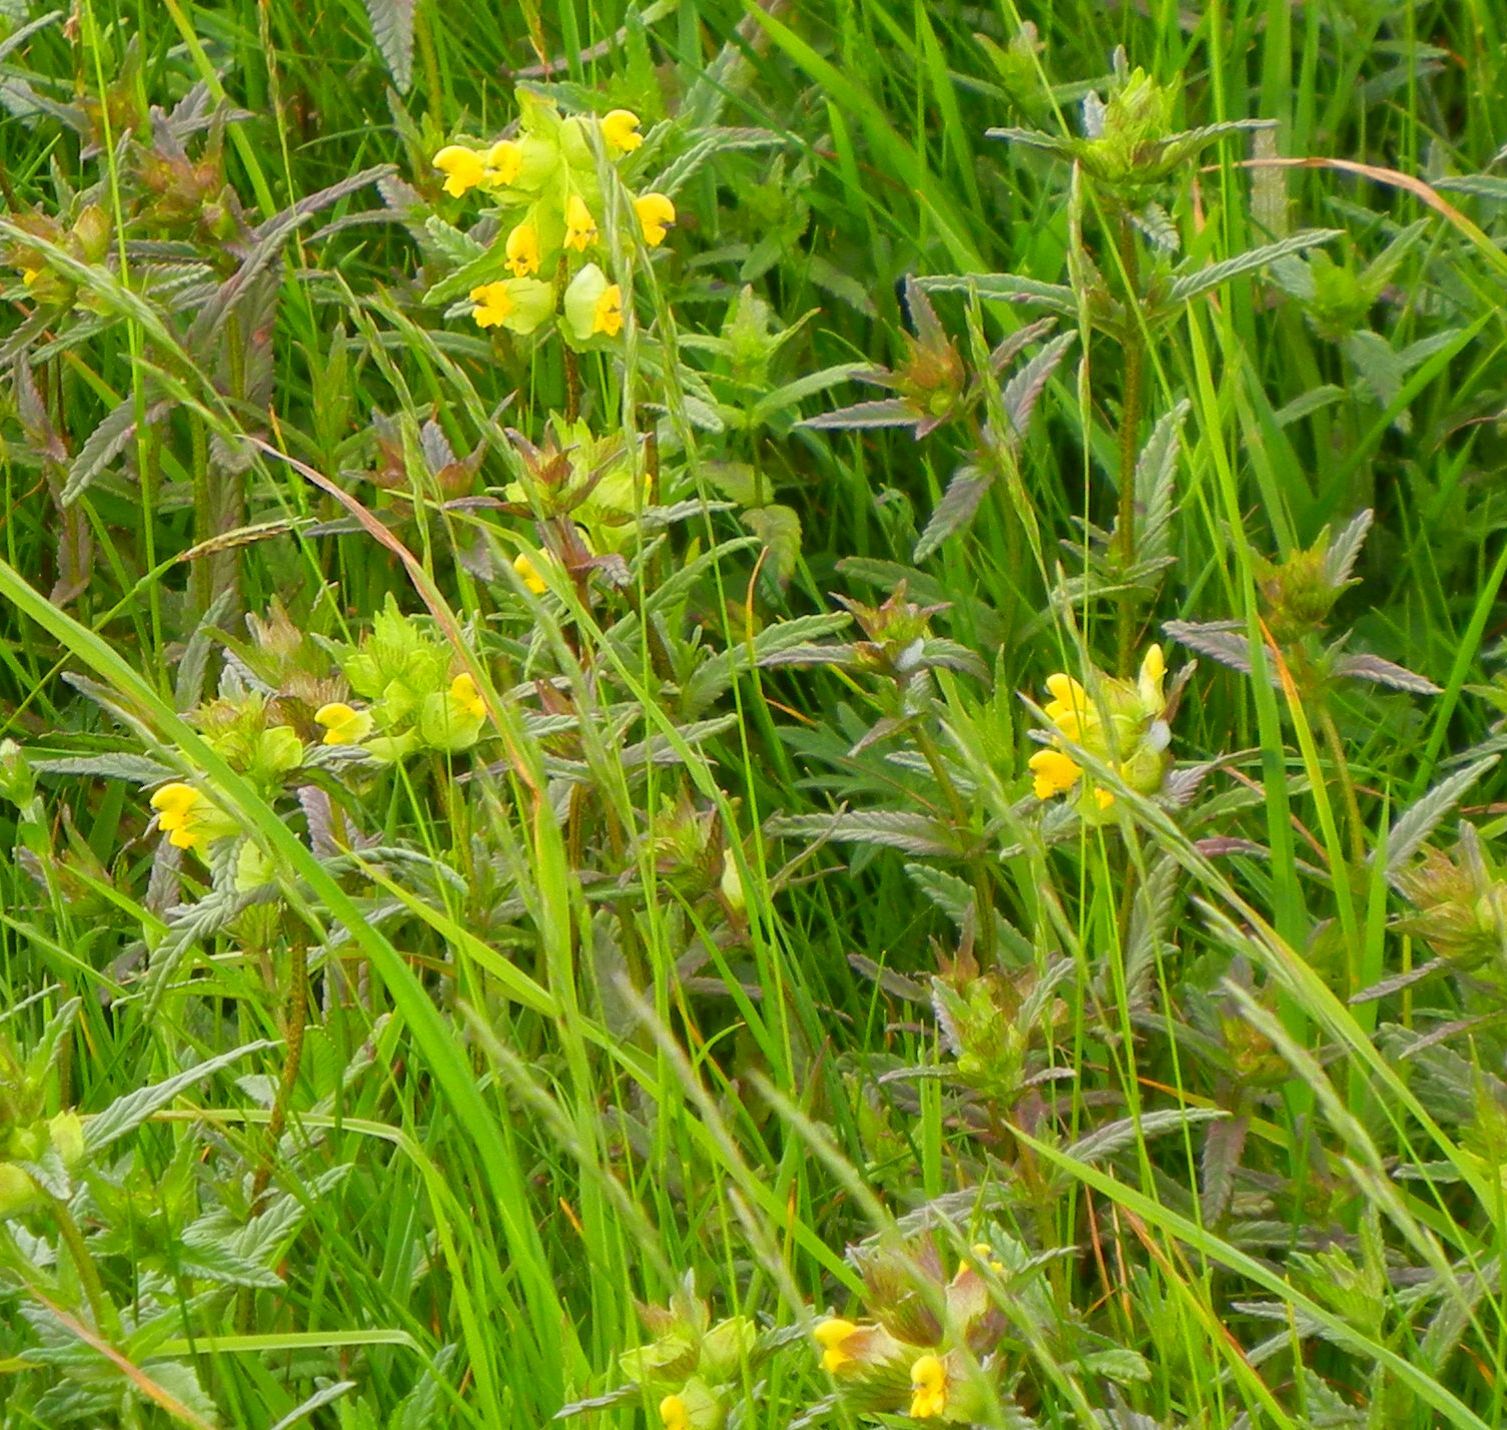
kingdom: Plantae
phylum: Tracheophyta
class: Magnoliopsida
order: Lamiales
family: Orobanchaceae
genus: Rhinanthus
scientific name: Rhinanthus minor
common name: Yellow-rattle
